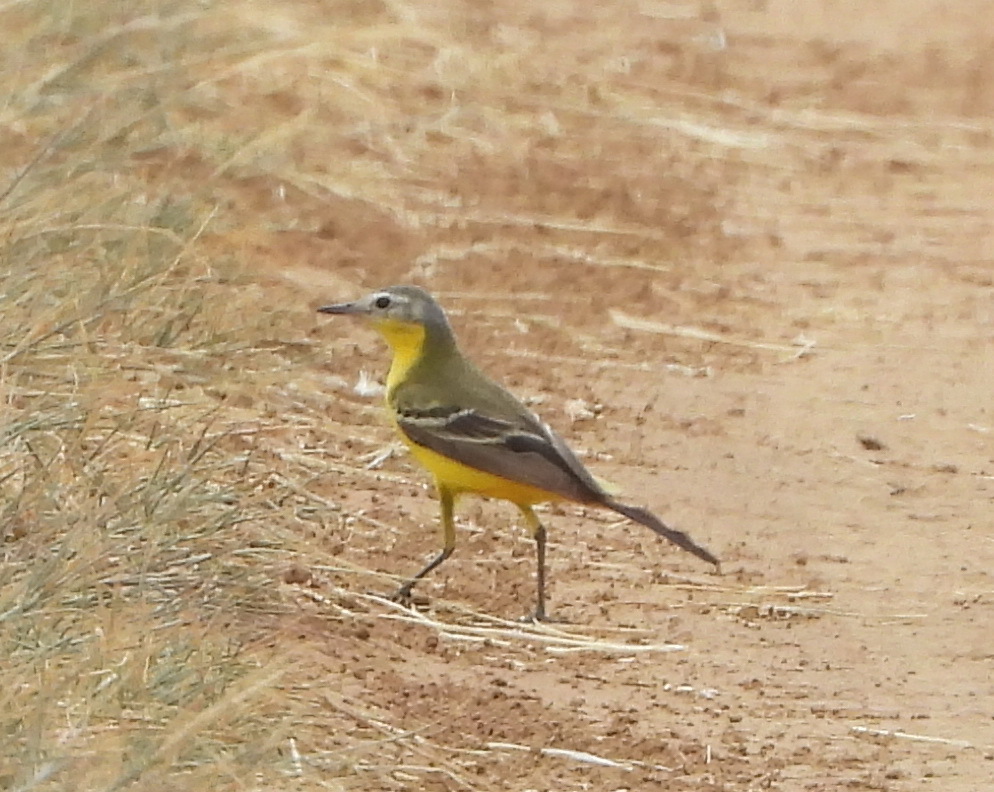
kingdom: Animalia
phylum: Chordata
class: Aves
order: Passeriformes
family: Motacillidae
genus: Motacilla
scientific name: Motacilla flava
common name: Western yellow wagtail
